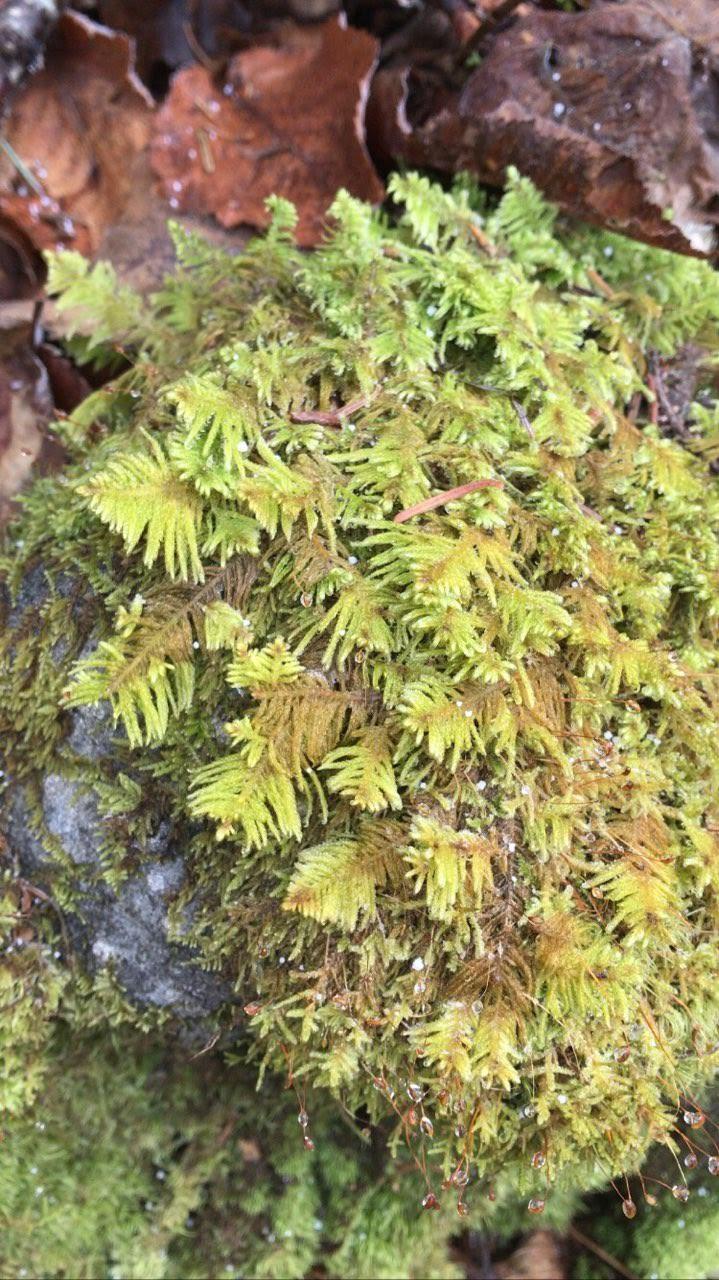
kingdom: Plantae
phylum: Bryophyta
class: Bryopsida
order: Hypnales
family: Pylaisiaceae
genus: Ptilium
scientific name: Ptilium crista-castrensis
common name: Knight's plume moss
